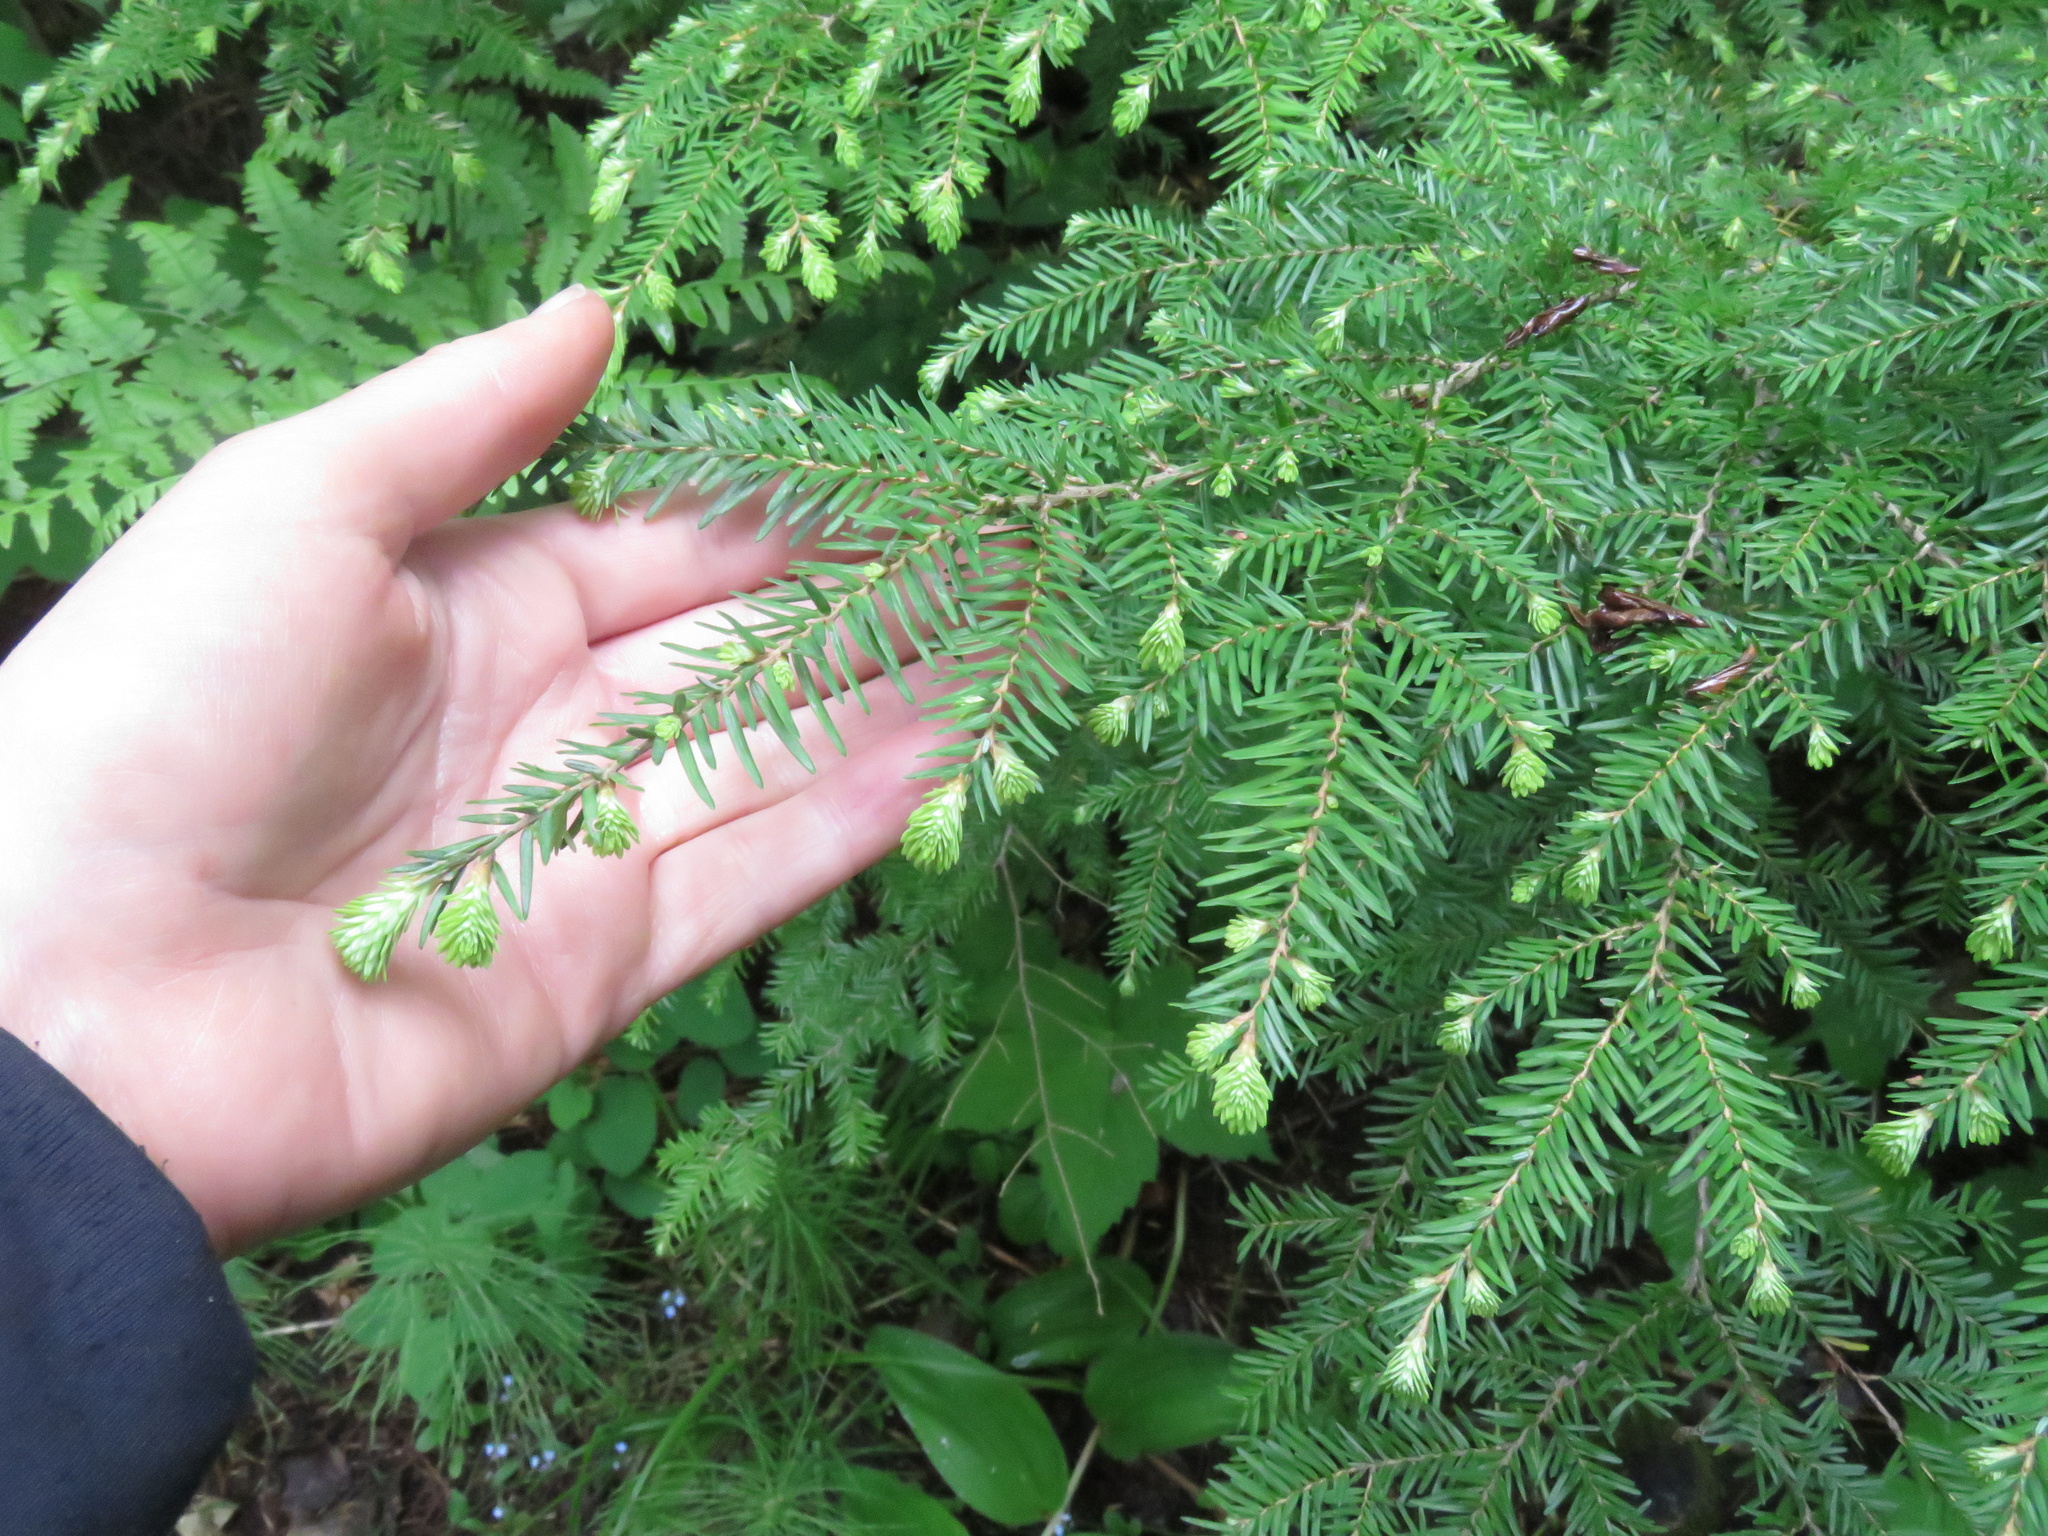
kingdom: Plantae
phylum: Tracheophyta
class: Pinopsida
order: Pinales
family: Pinaceae
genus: Tsuga
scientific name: Tsuga heterophylla
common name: Western hemlock
